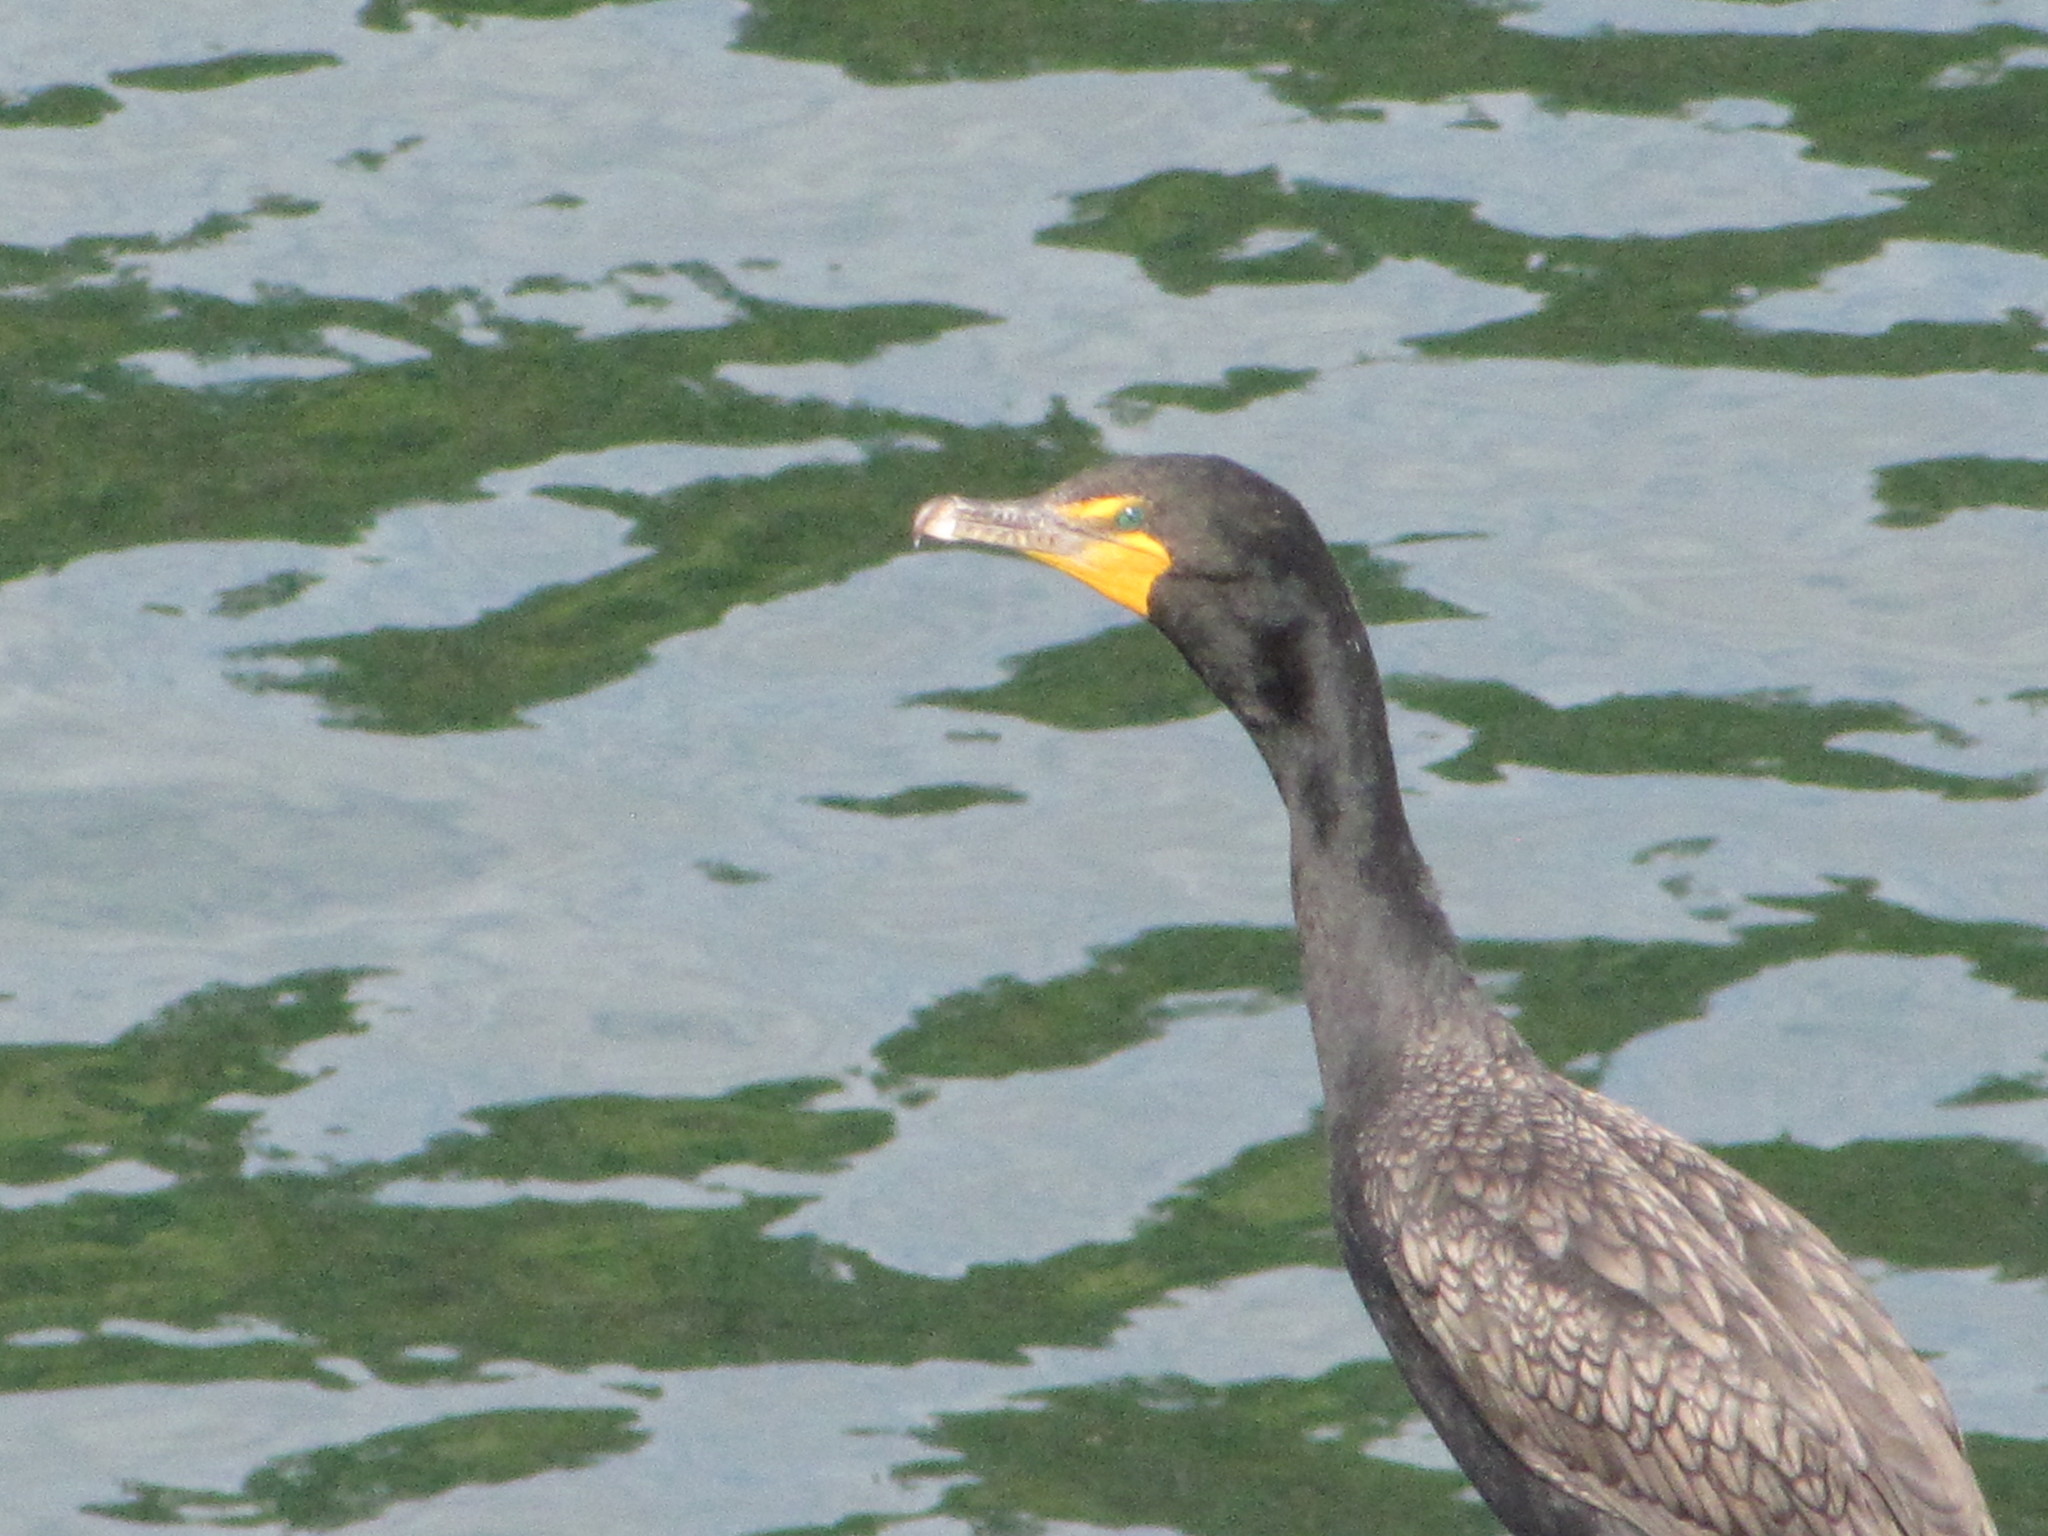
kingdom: Animalia
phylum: Chordata
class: Aves
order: Suliformes
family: Phalacrocoracidae
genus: Phalacrocorax
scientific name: Phalacrocorax auritus
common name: Double-crested cormorant
